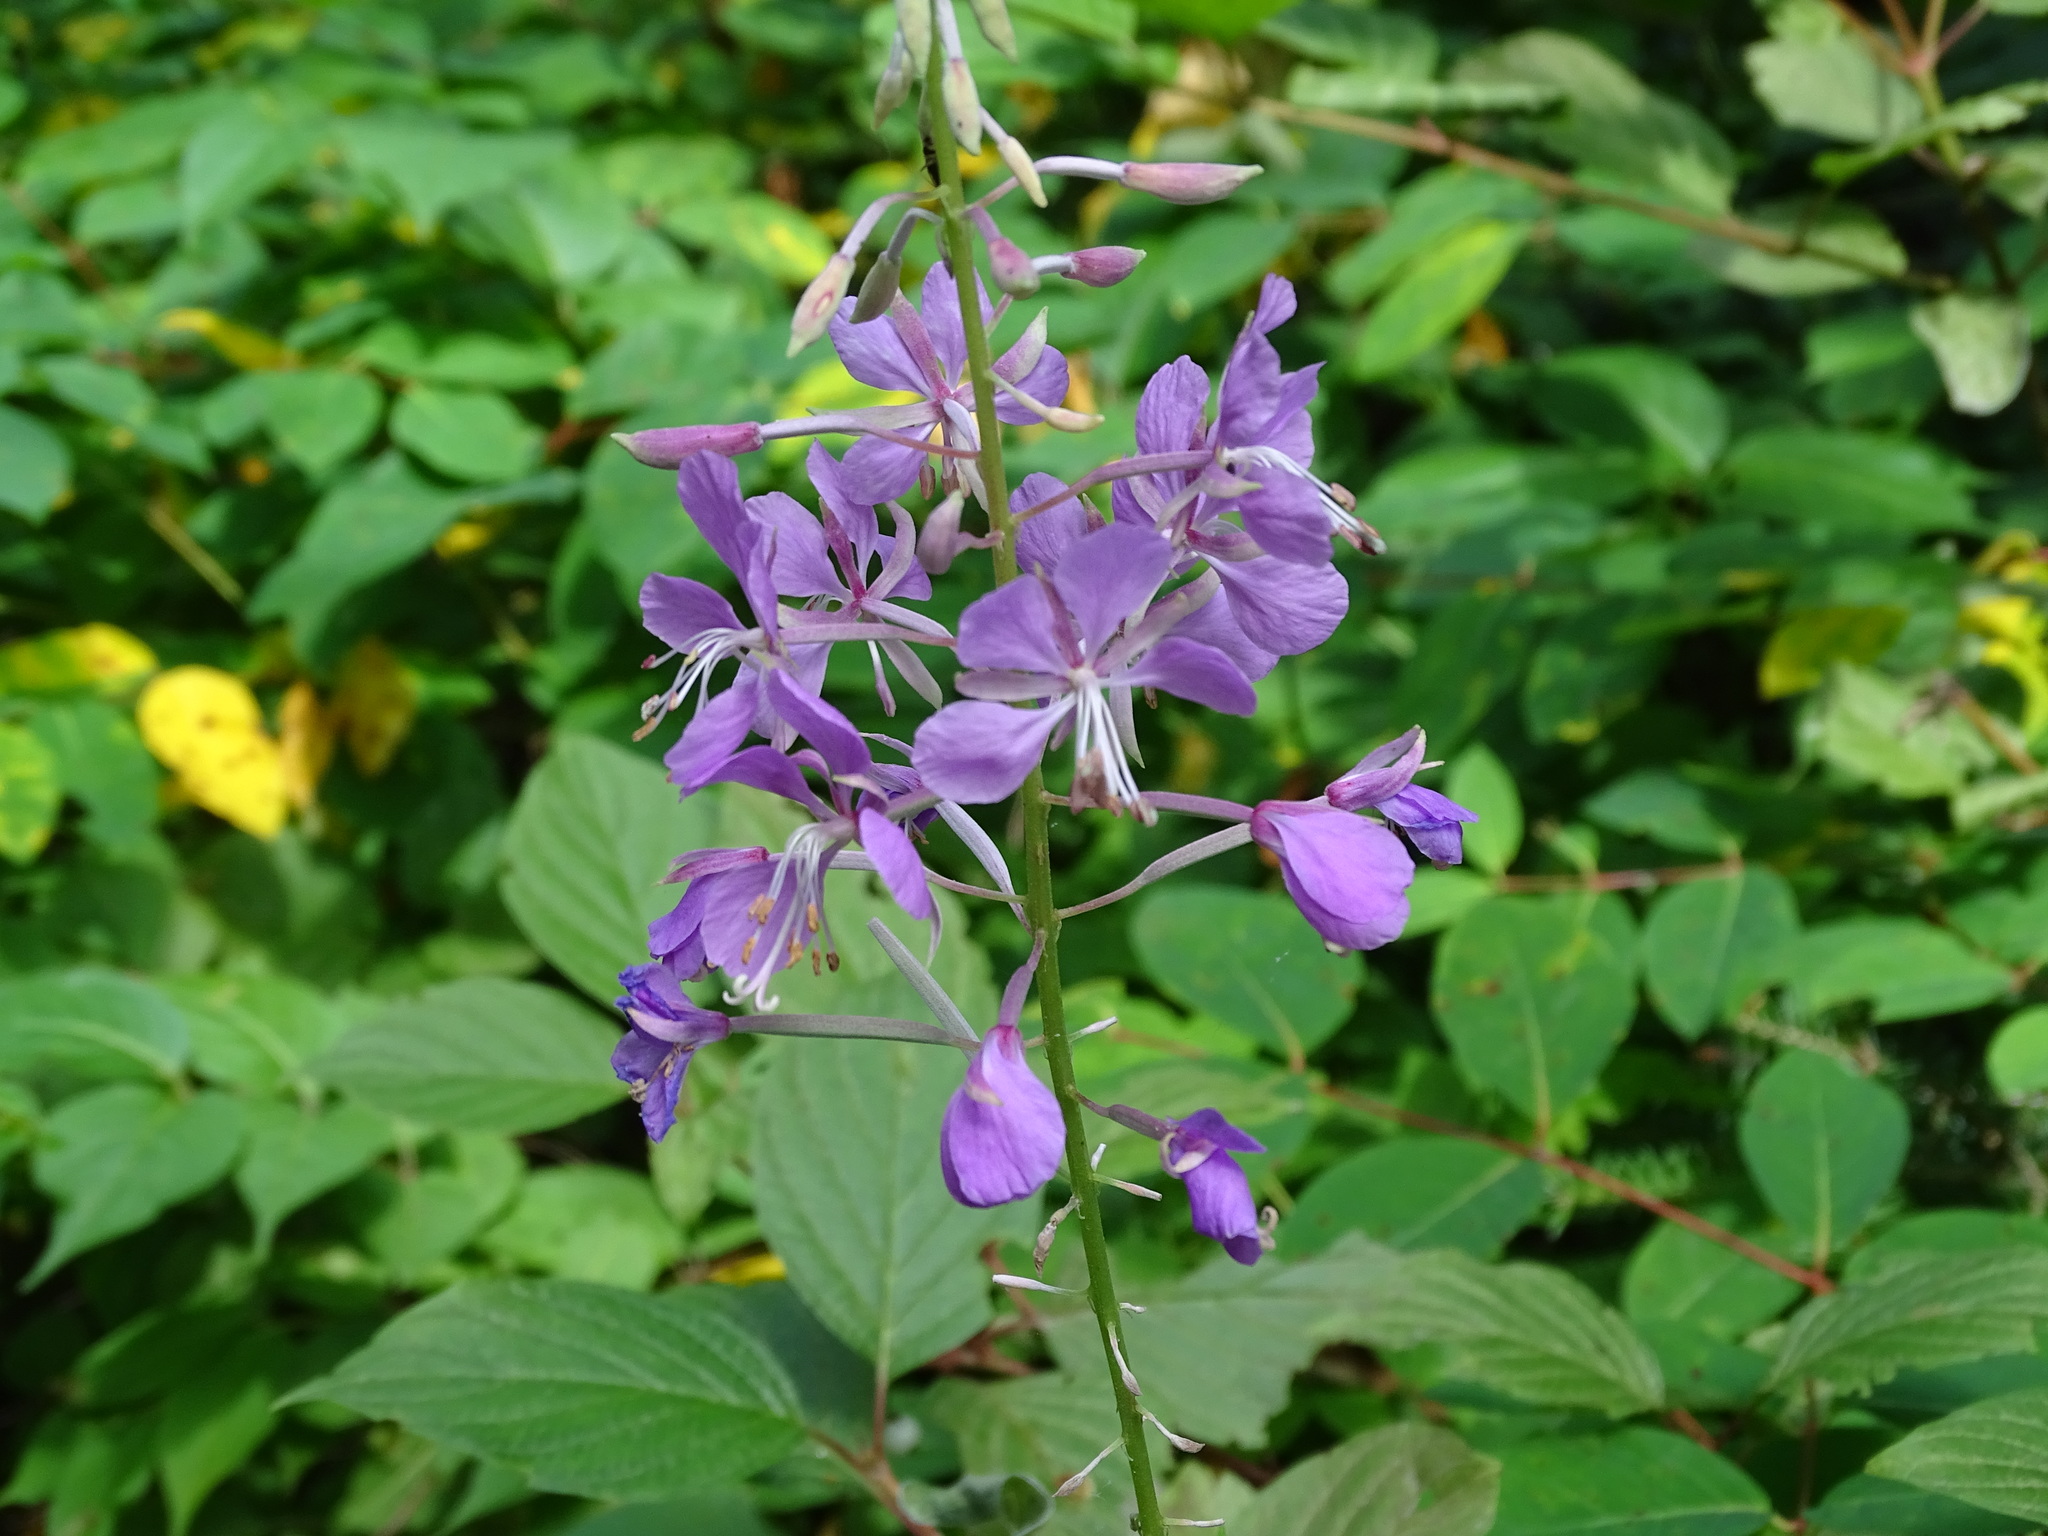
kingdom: Plantae
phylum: Tracheophyta
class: Magnoliopsida
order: Myrtales
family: Onagraceae
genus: Chamaenerion
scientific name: Chamaenerion angustifolium
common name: Fireweed
